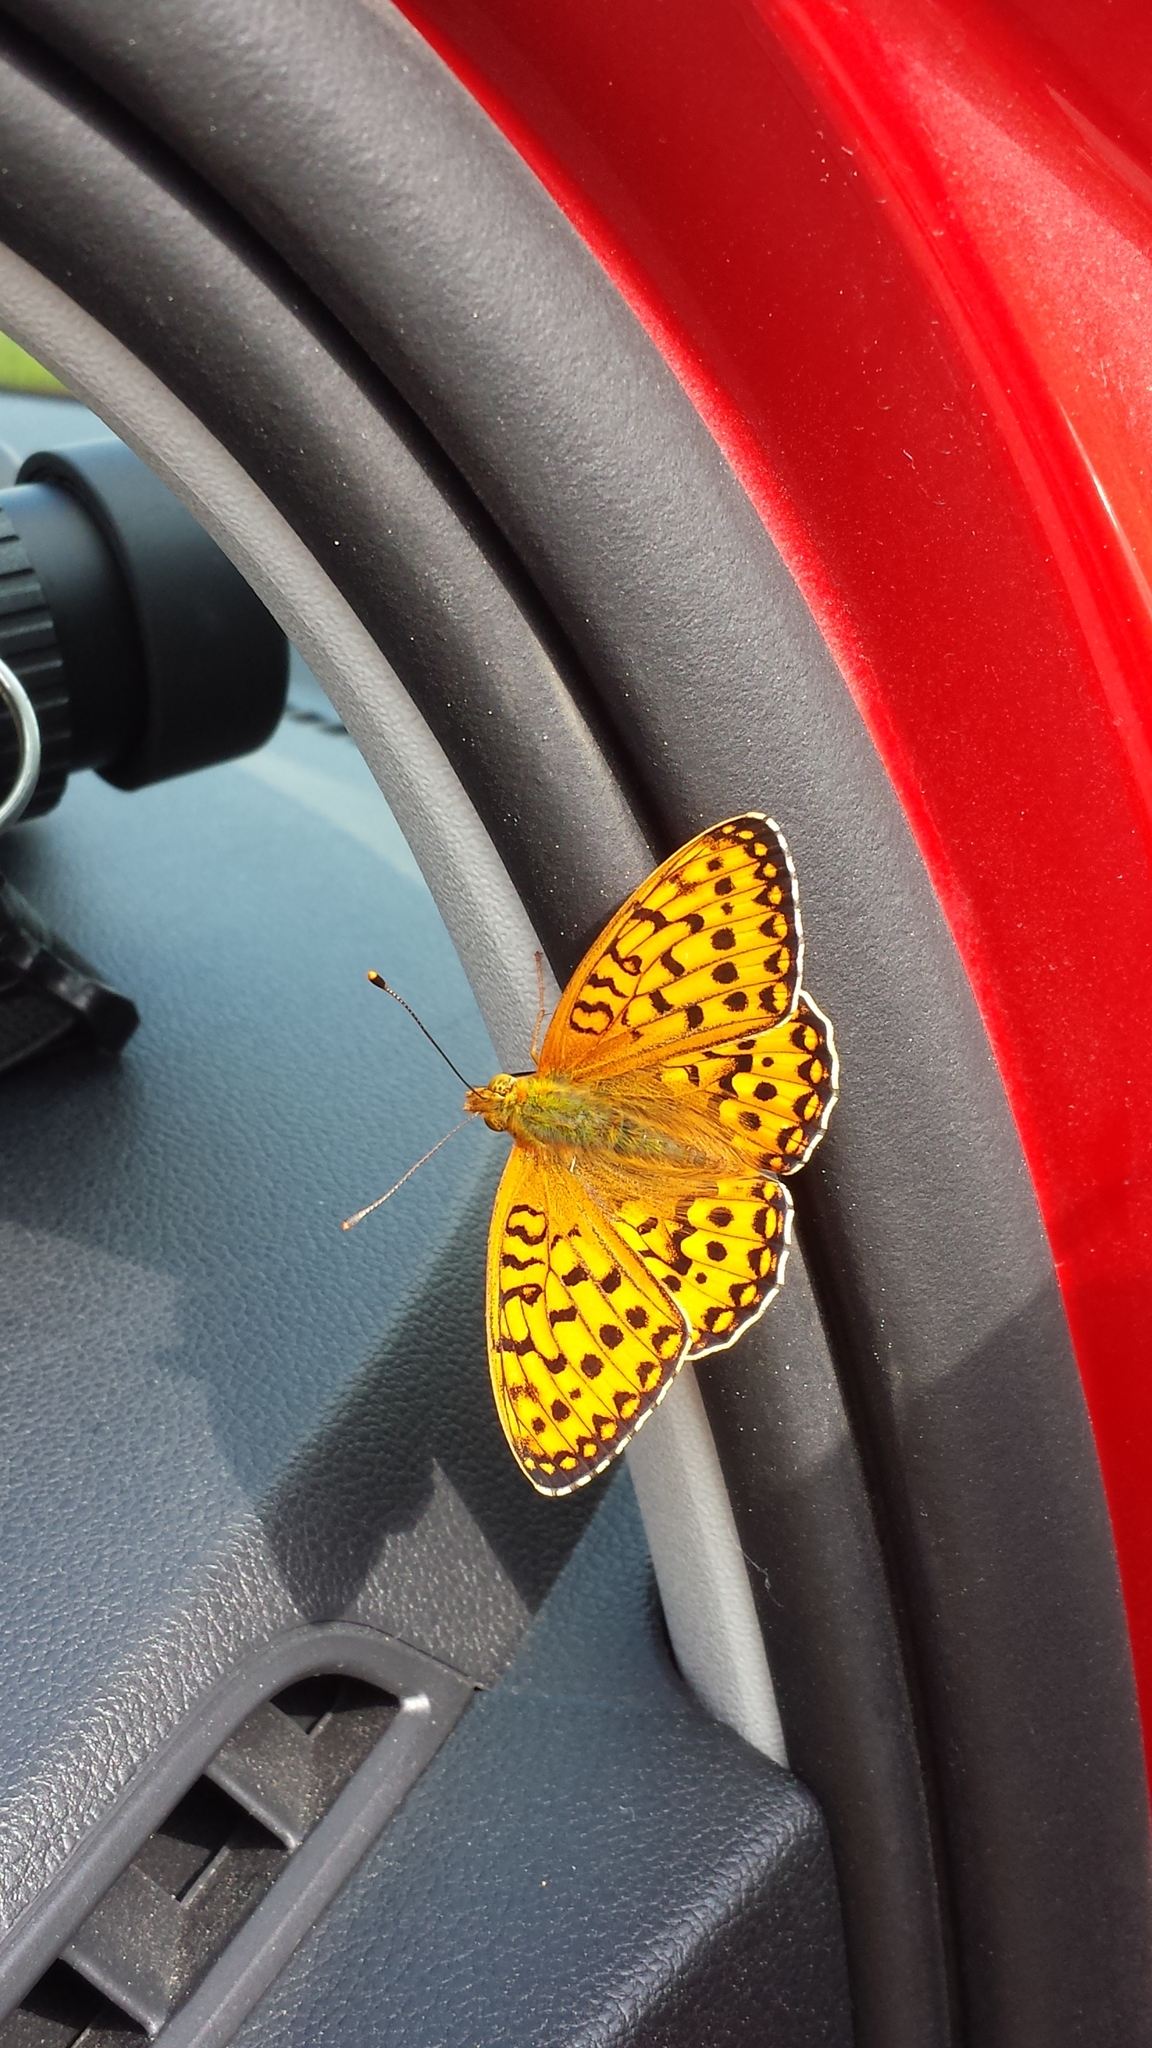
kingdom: Animalia
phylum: Arthropoda
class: Insecta
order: Lepidoptera
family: Nymphalidae
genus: Speyeria
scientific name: Speyeria aglaja
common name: Dark green fritillary
